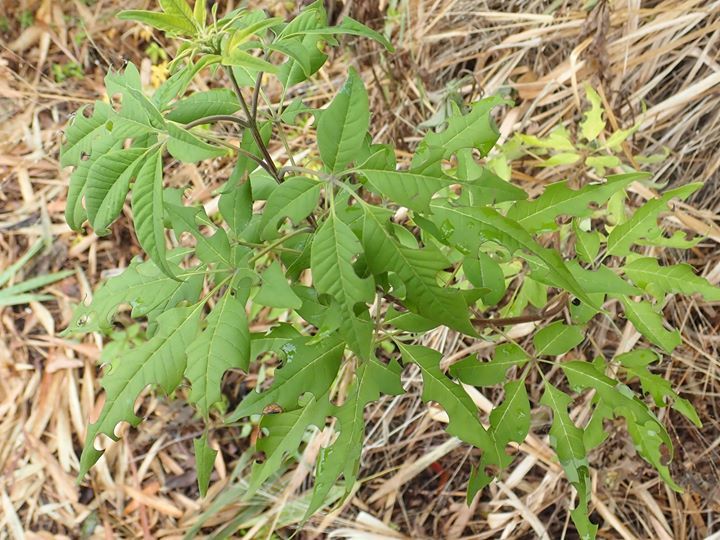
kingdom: Plantae
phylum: Tracheophyta
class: Magnoliopsida
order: Lamiales
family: Lamiaceae
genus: Vitex
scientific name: Vitex negundo
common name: Chinese chastetree
